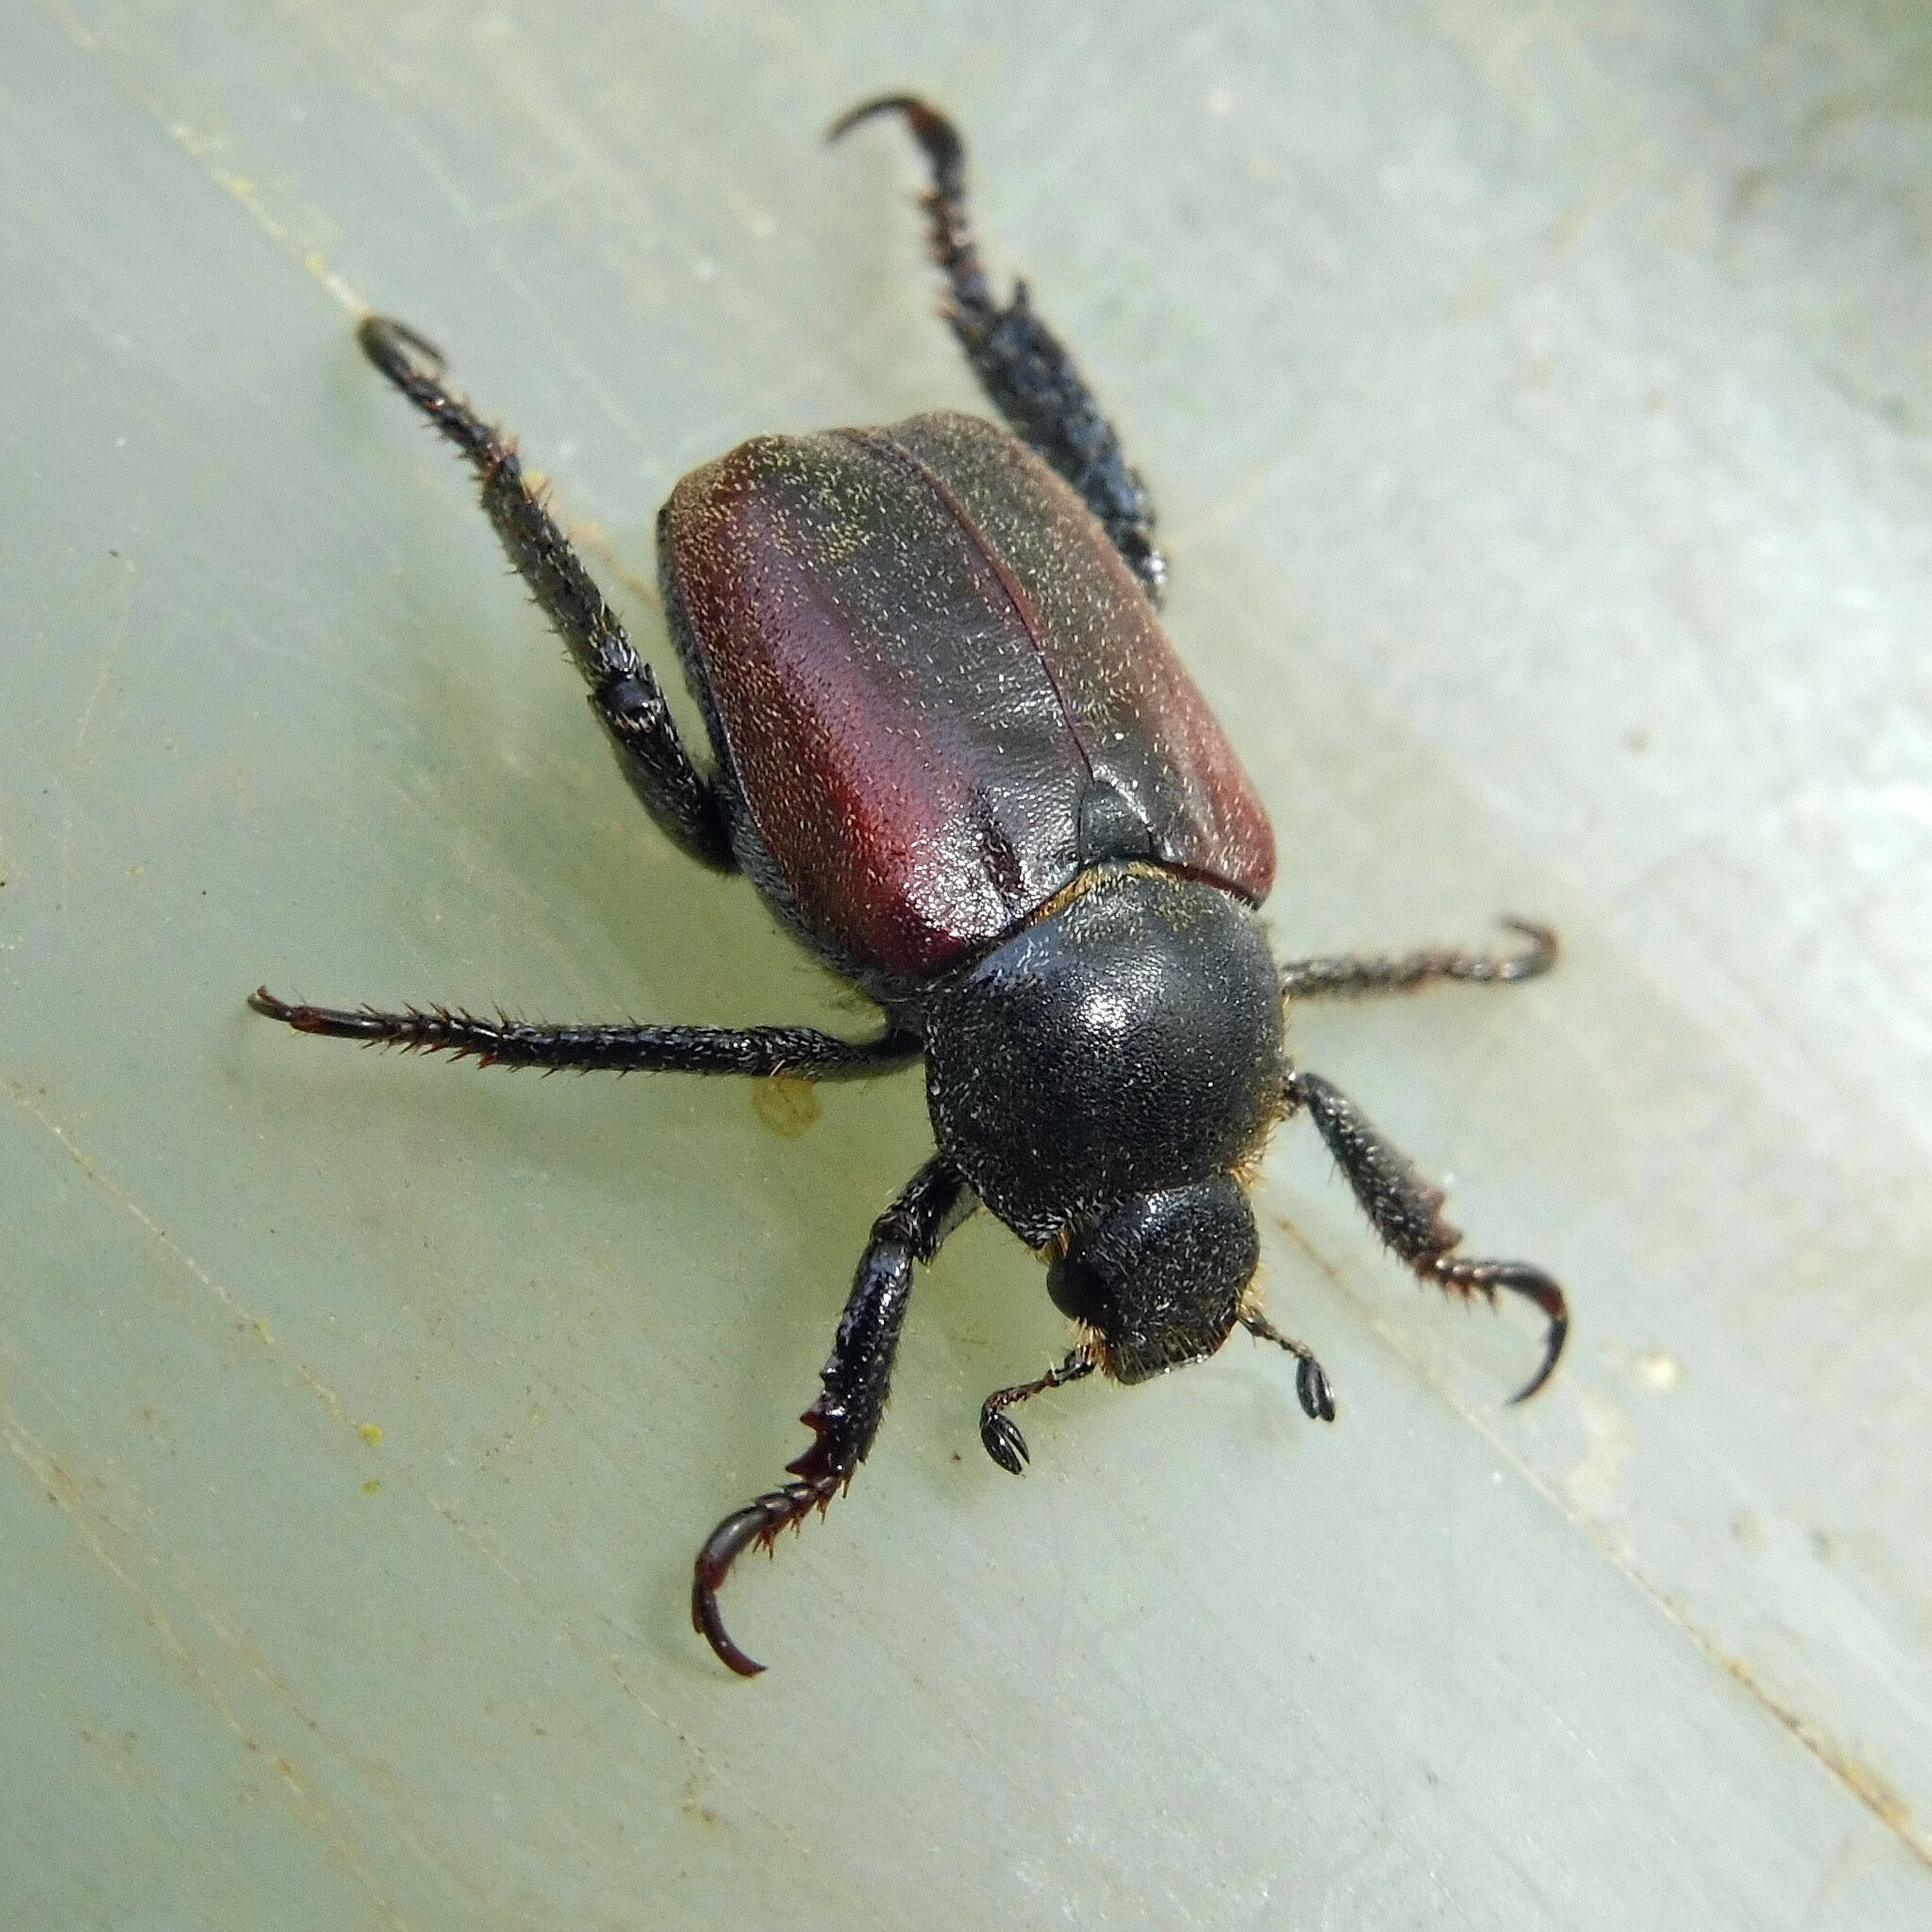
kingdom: Animalia
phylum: Arthropoda
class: Insecta
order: Coleoptera
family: Scarabaeidae
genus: Hoplia
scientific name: Hoplia philanthus
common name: Welsh chafer
